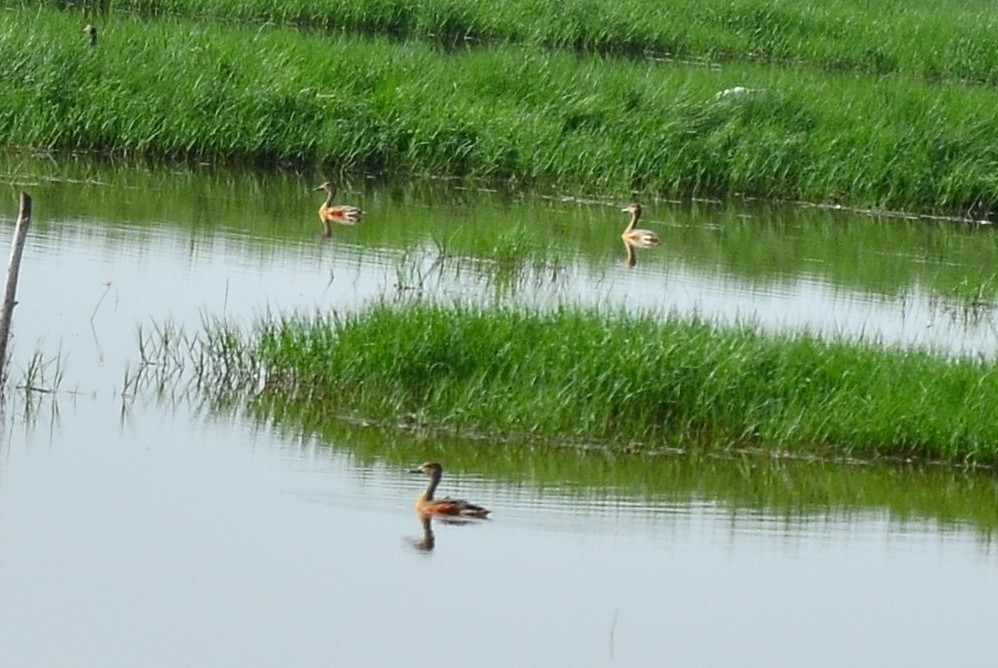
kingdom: Animalia
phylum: Chordata
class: Aves
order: Anseriformes
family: Anatidae
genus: Dendrocygna
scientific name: Dendrocygna javanica
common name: Lesser whistling-duck
